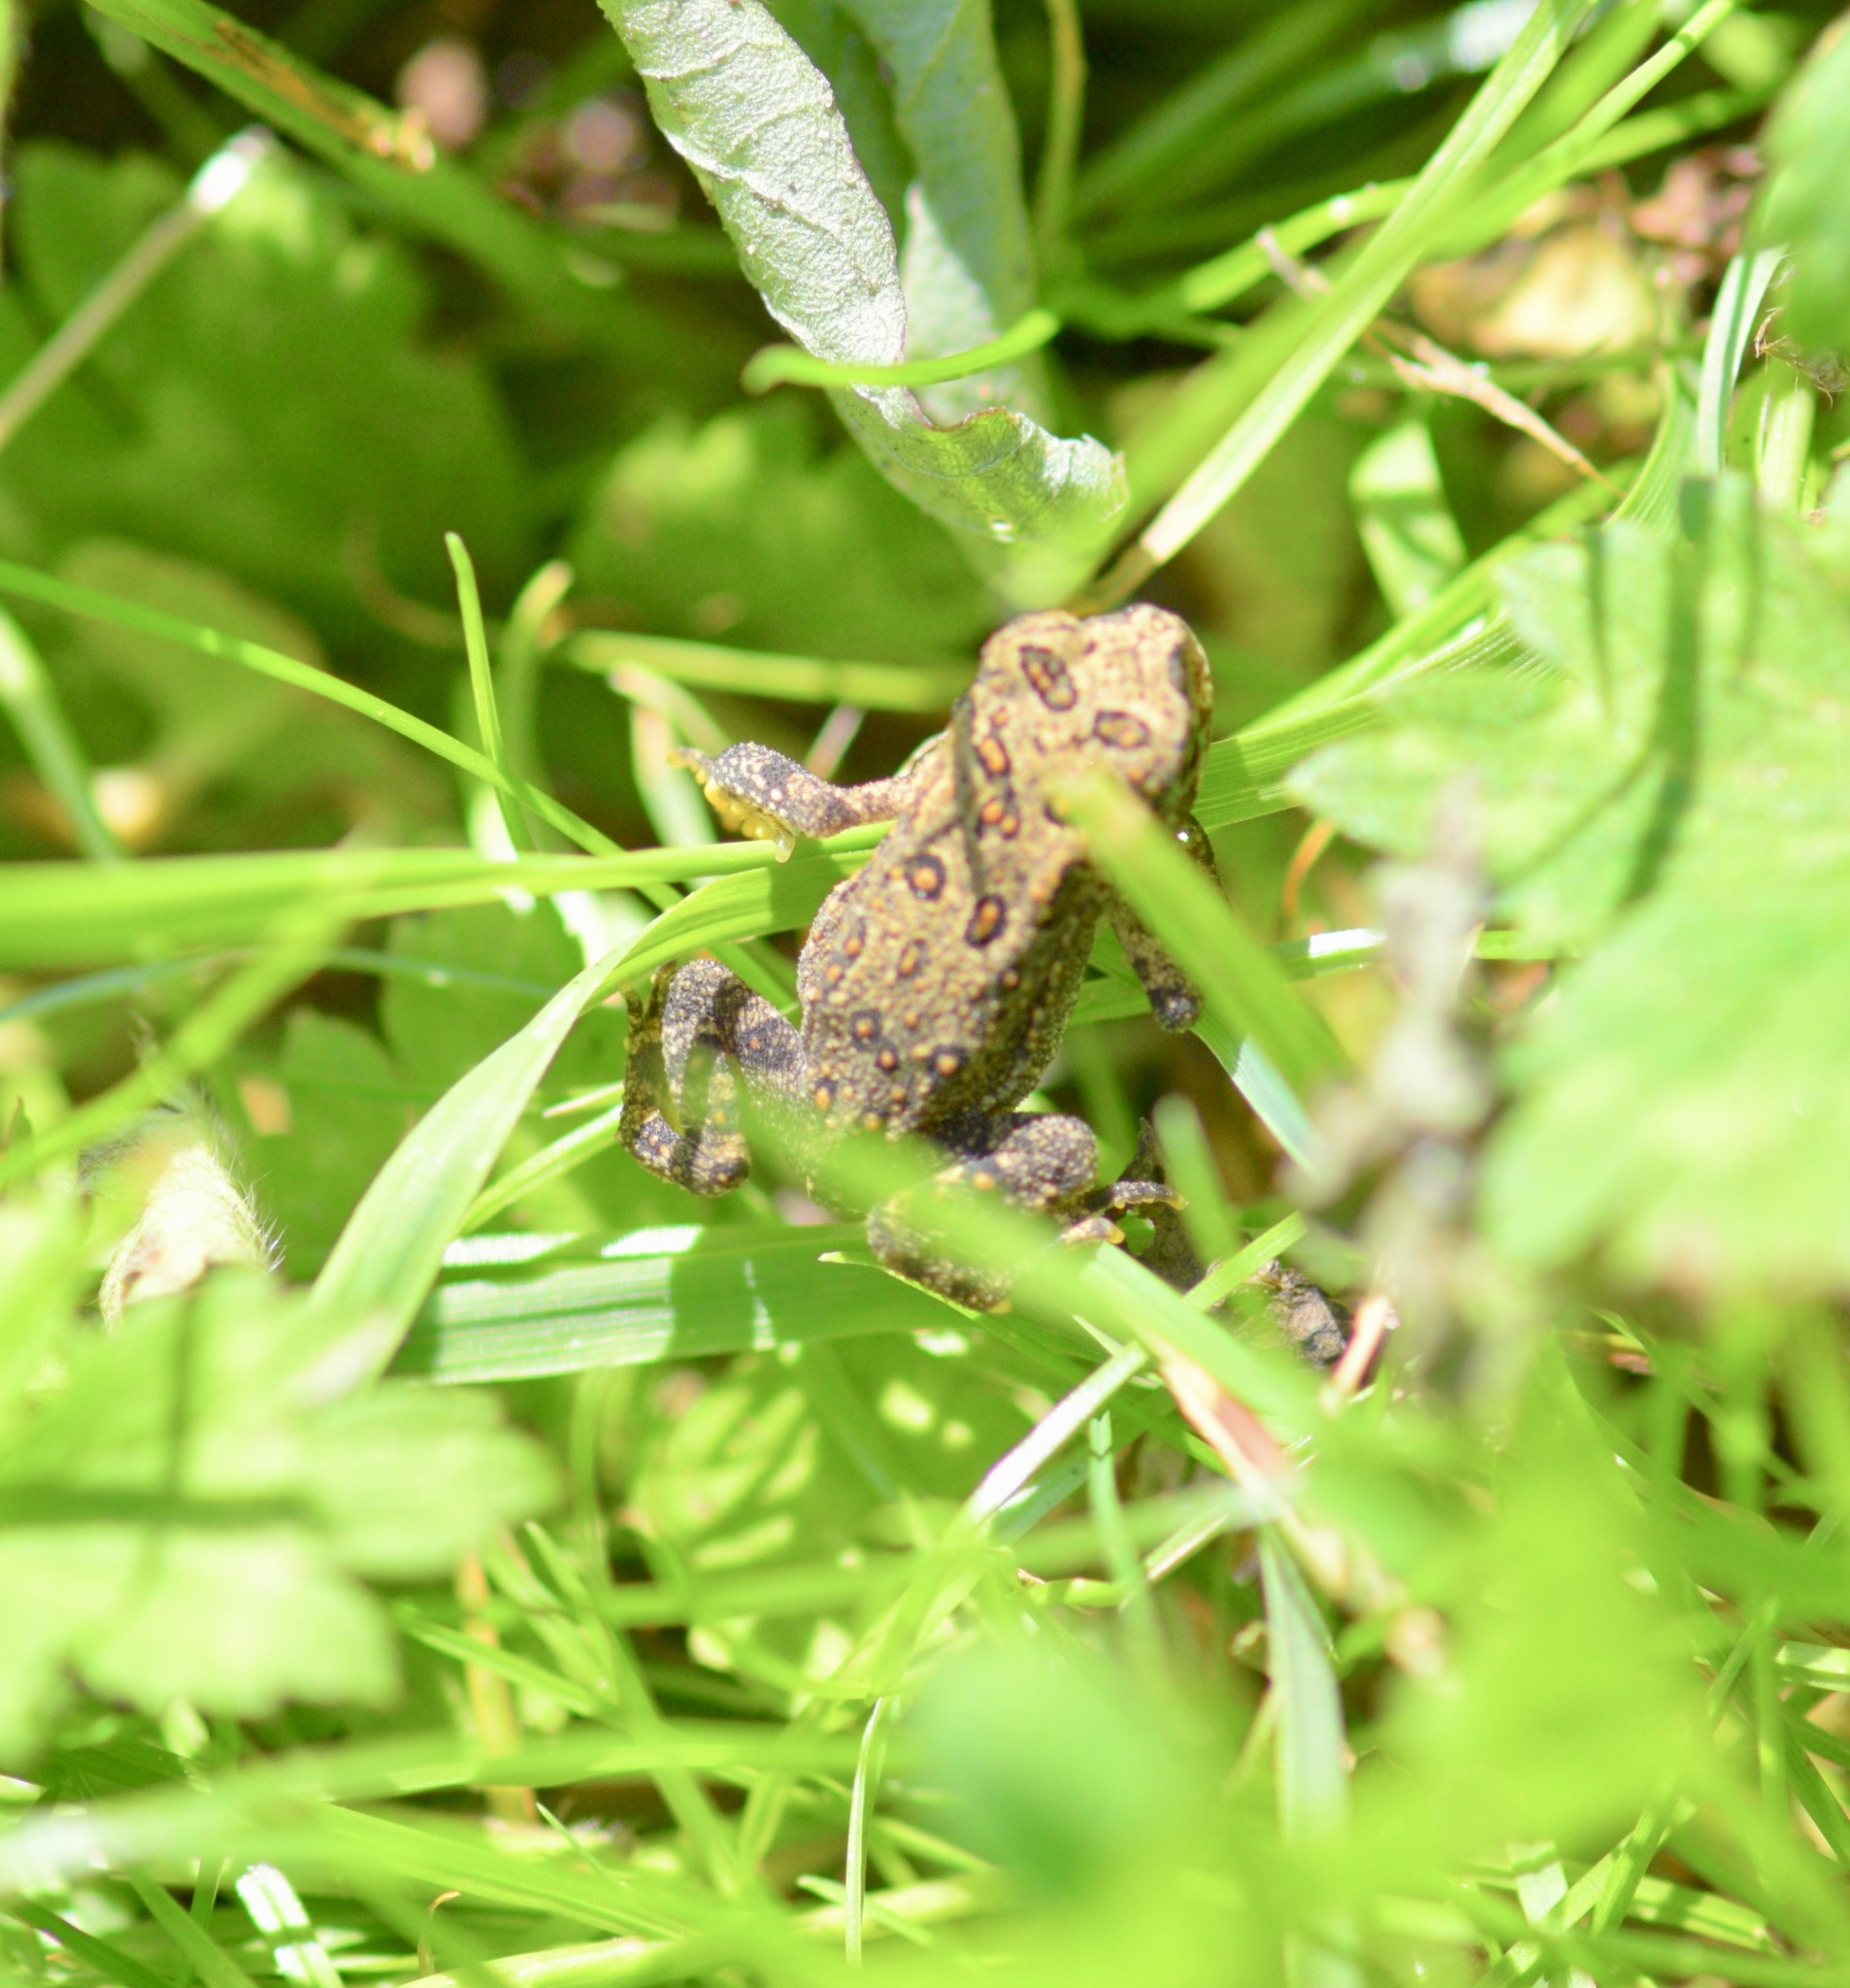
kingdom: Animalia
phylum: Chordata
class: Amphibia
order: Anura
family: Bufonidae
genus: Anaxyrus
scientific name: Anaxyrus americanus
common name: American toad
